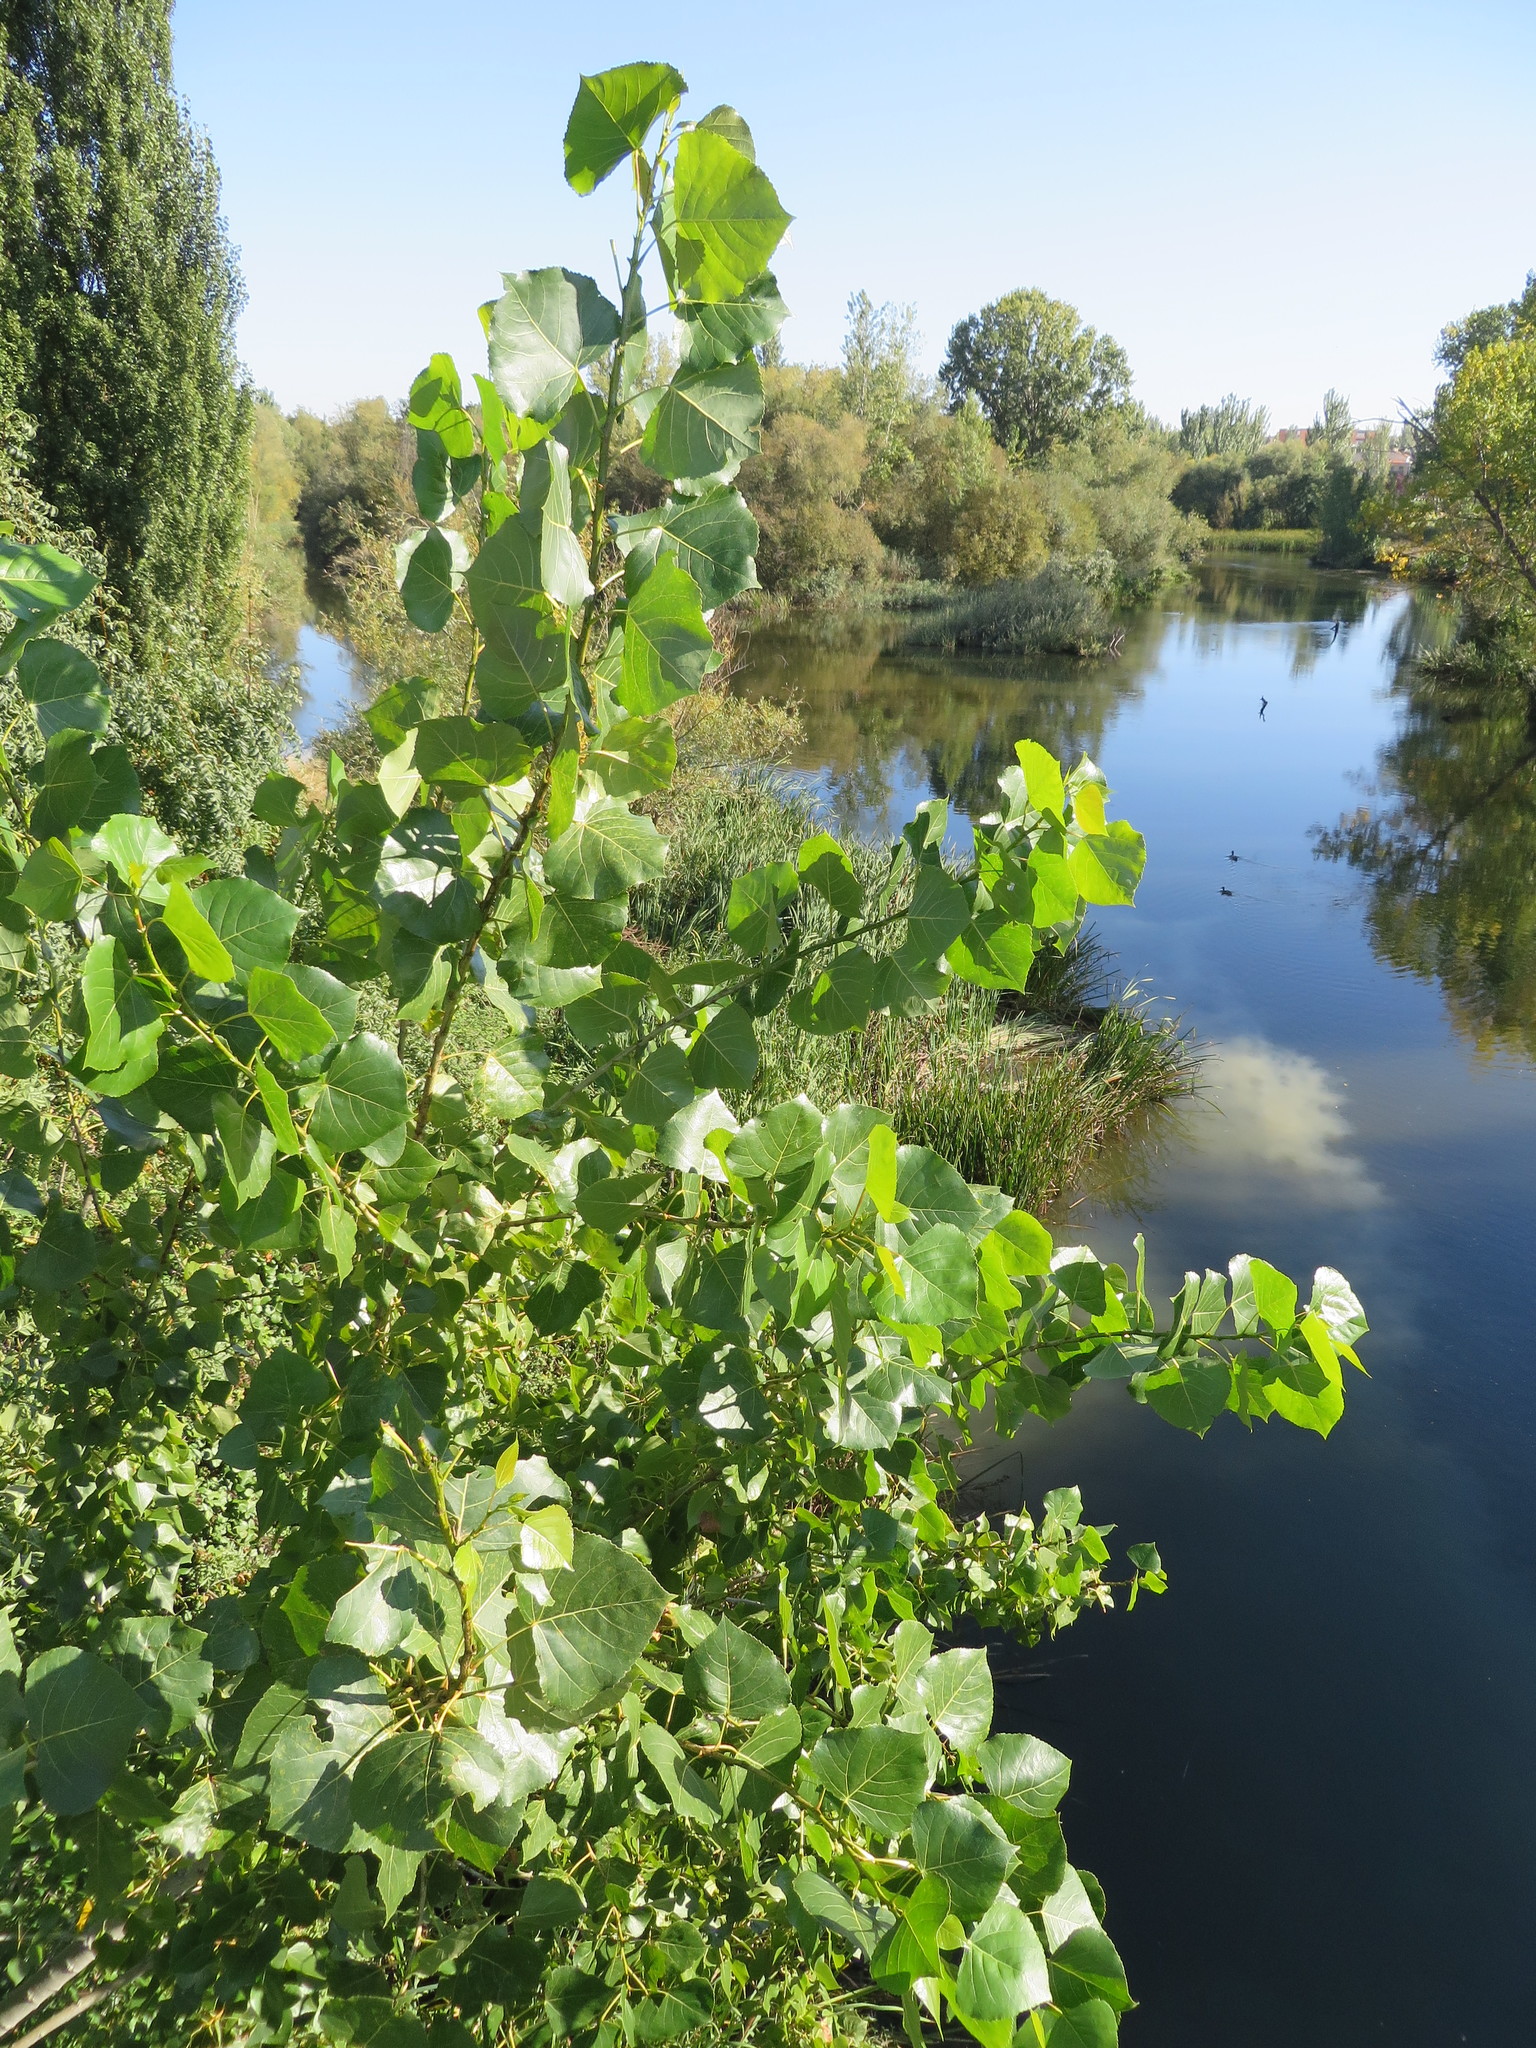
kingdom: Plantae
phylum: Tracheophyta
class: Magnoliopsida
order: Malpighiales
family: Salicaceae
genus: Populus
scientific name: Populus nigra
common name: Black poplar
